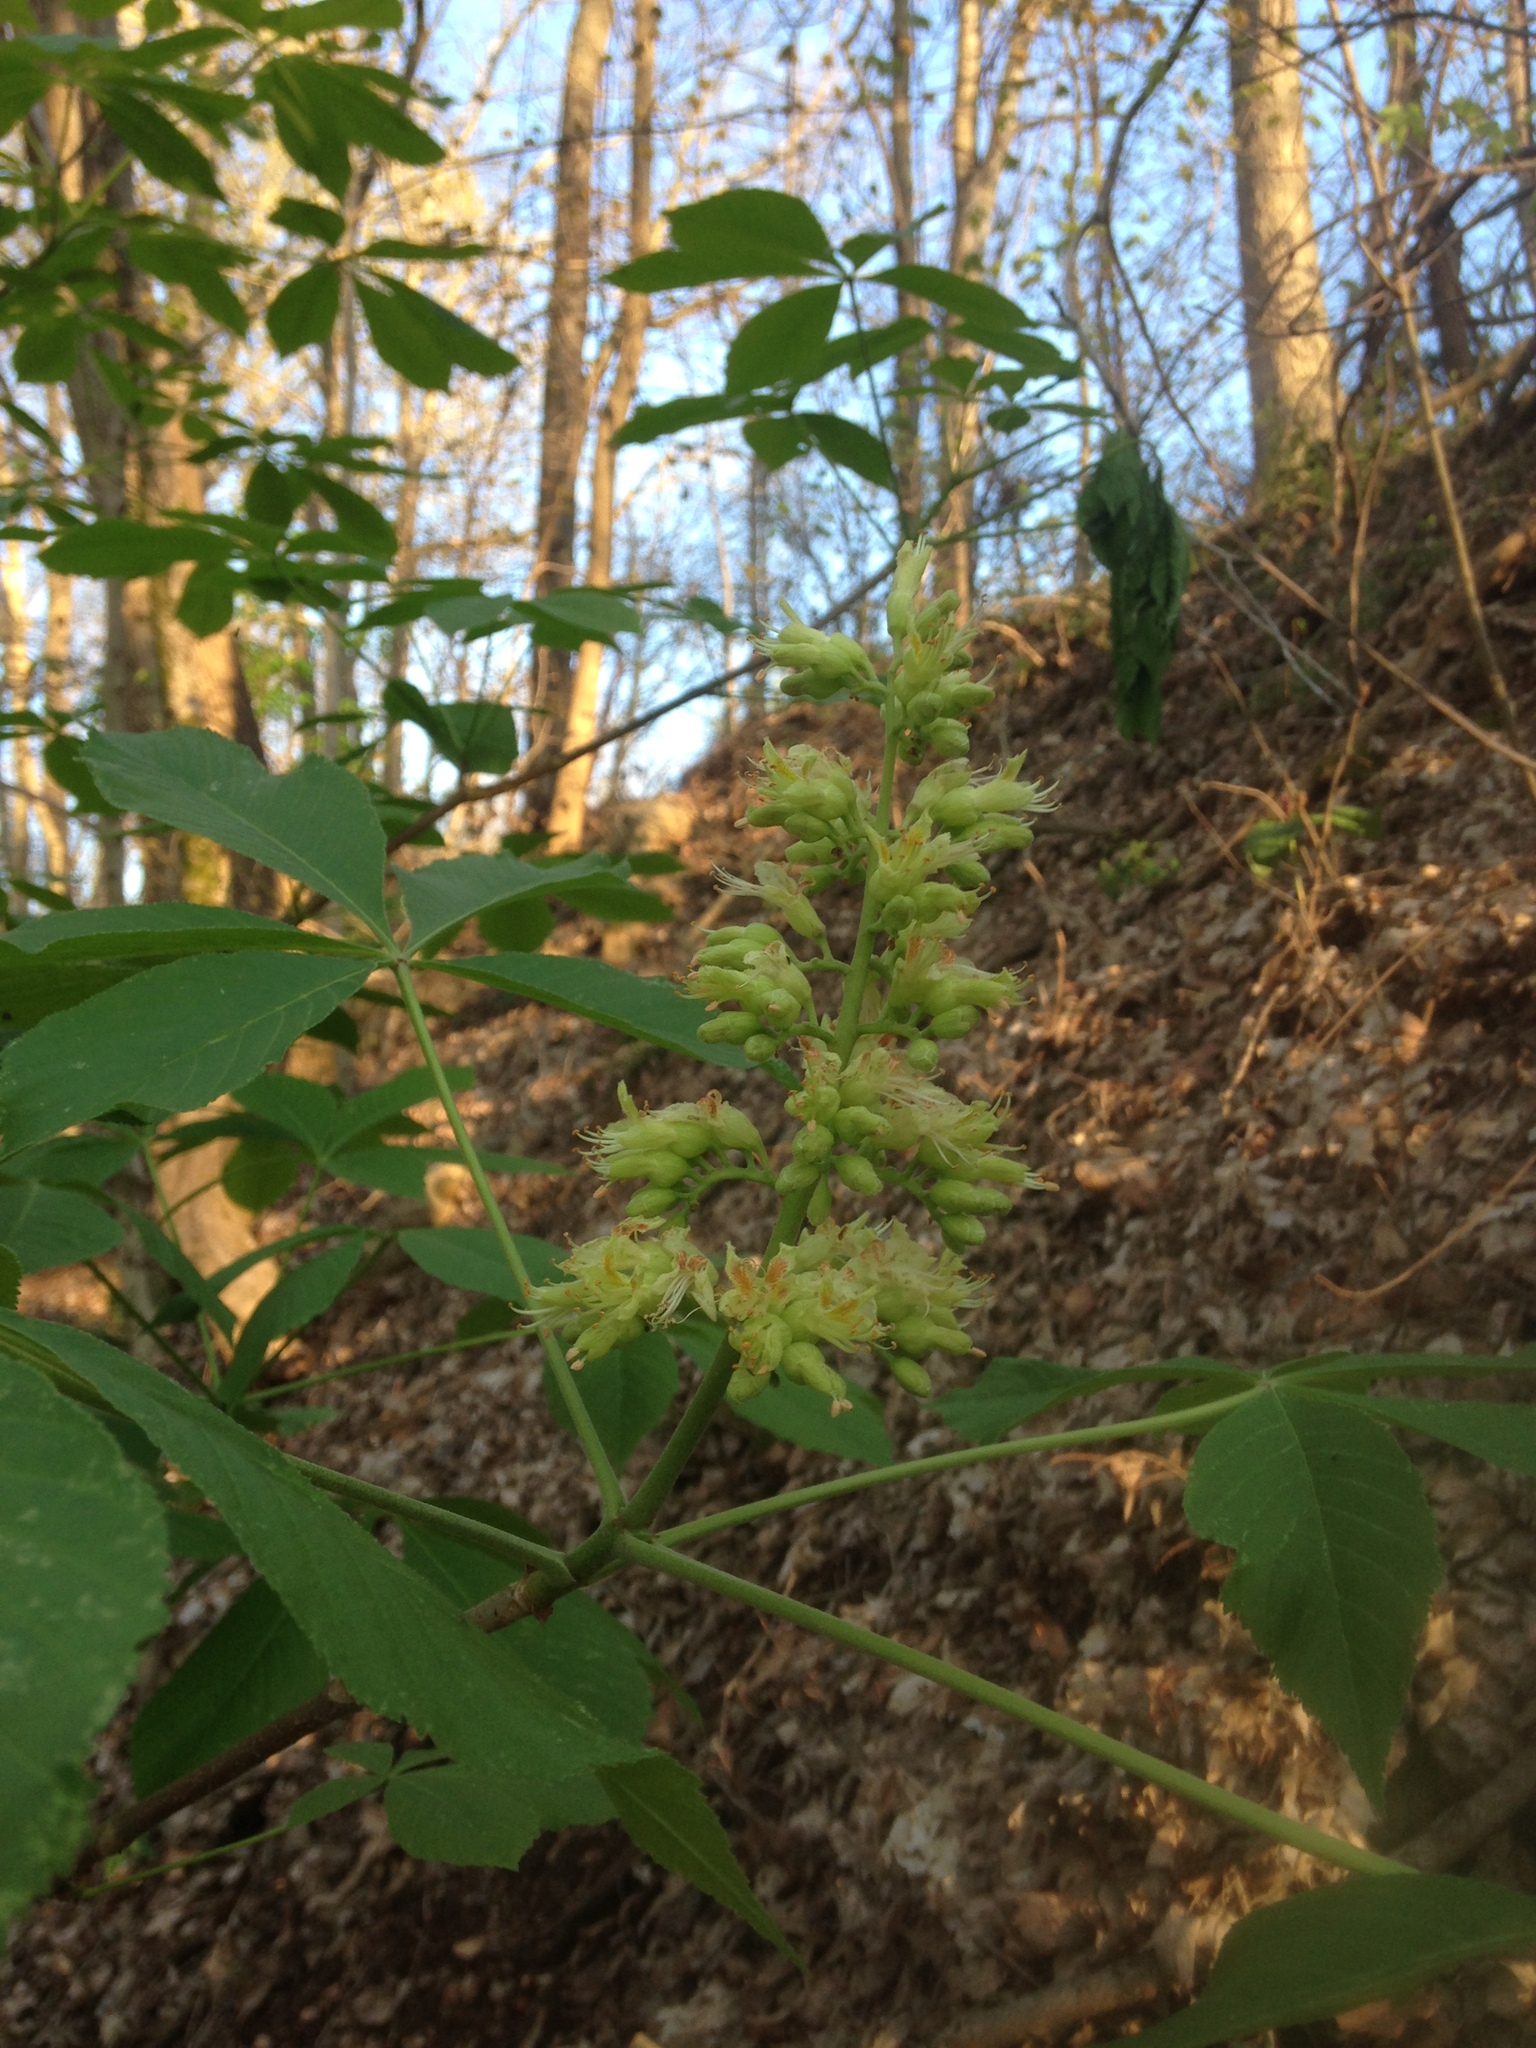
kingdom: Plantae
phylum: Tracheophyta
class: Magnoliopsida
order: Sapindales
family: Sapindaceae
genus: Aesculus
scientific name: Aesculus glabra
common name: Ohio buckeye
